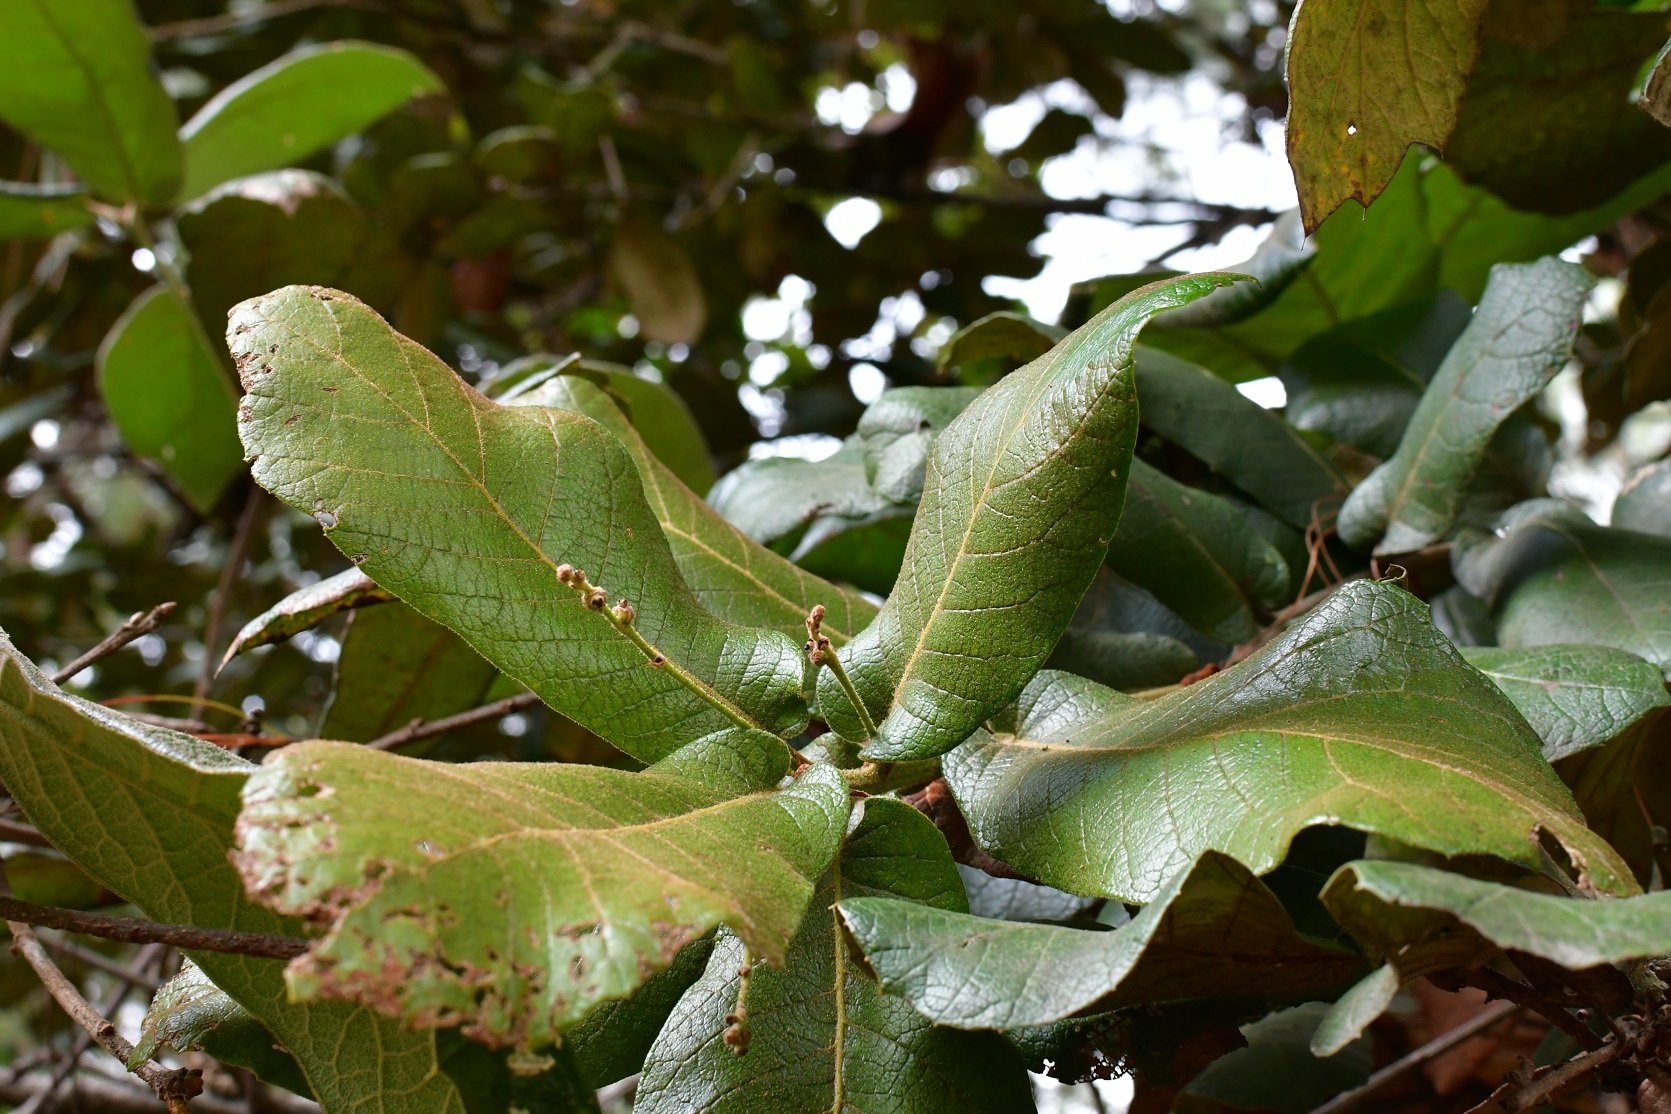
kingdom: Plantae
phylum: Tracheophyta
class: Magnoliopsida
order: Fagales
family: Fagaceae
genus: Quercus
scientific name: Quercus rugosa
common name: Netleaf oak
